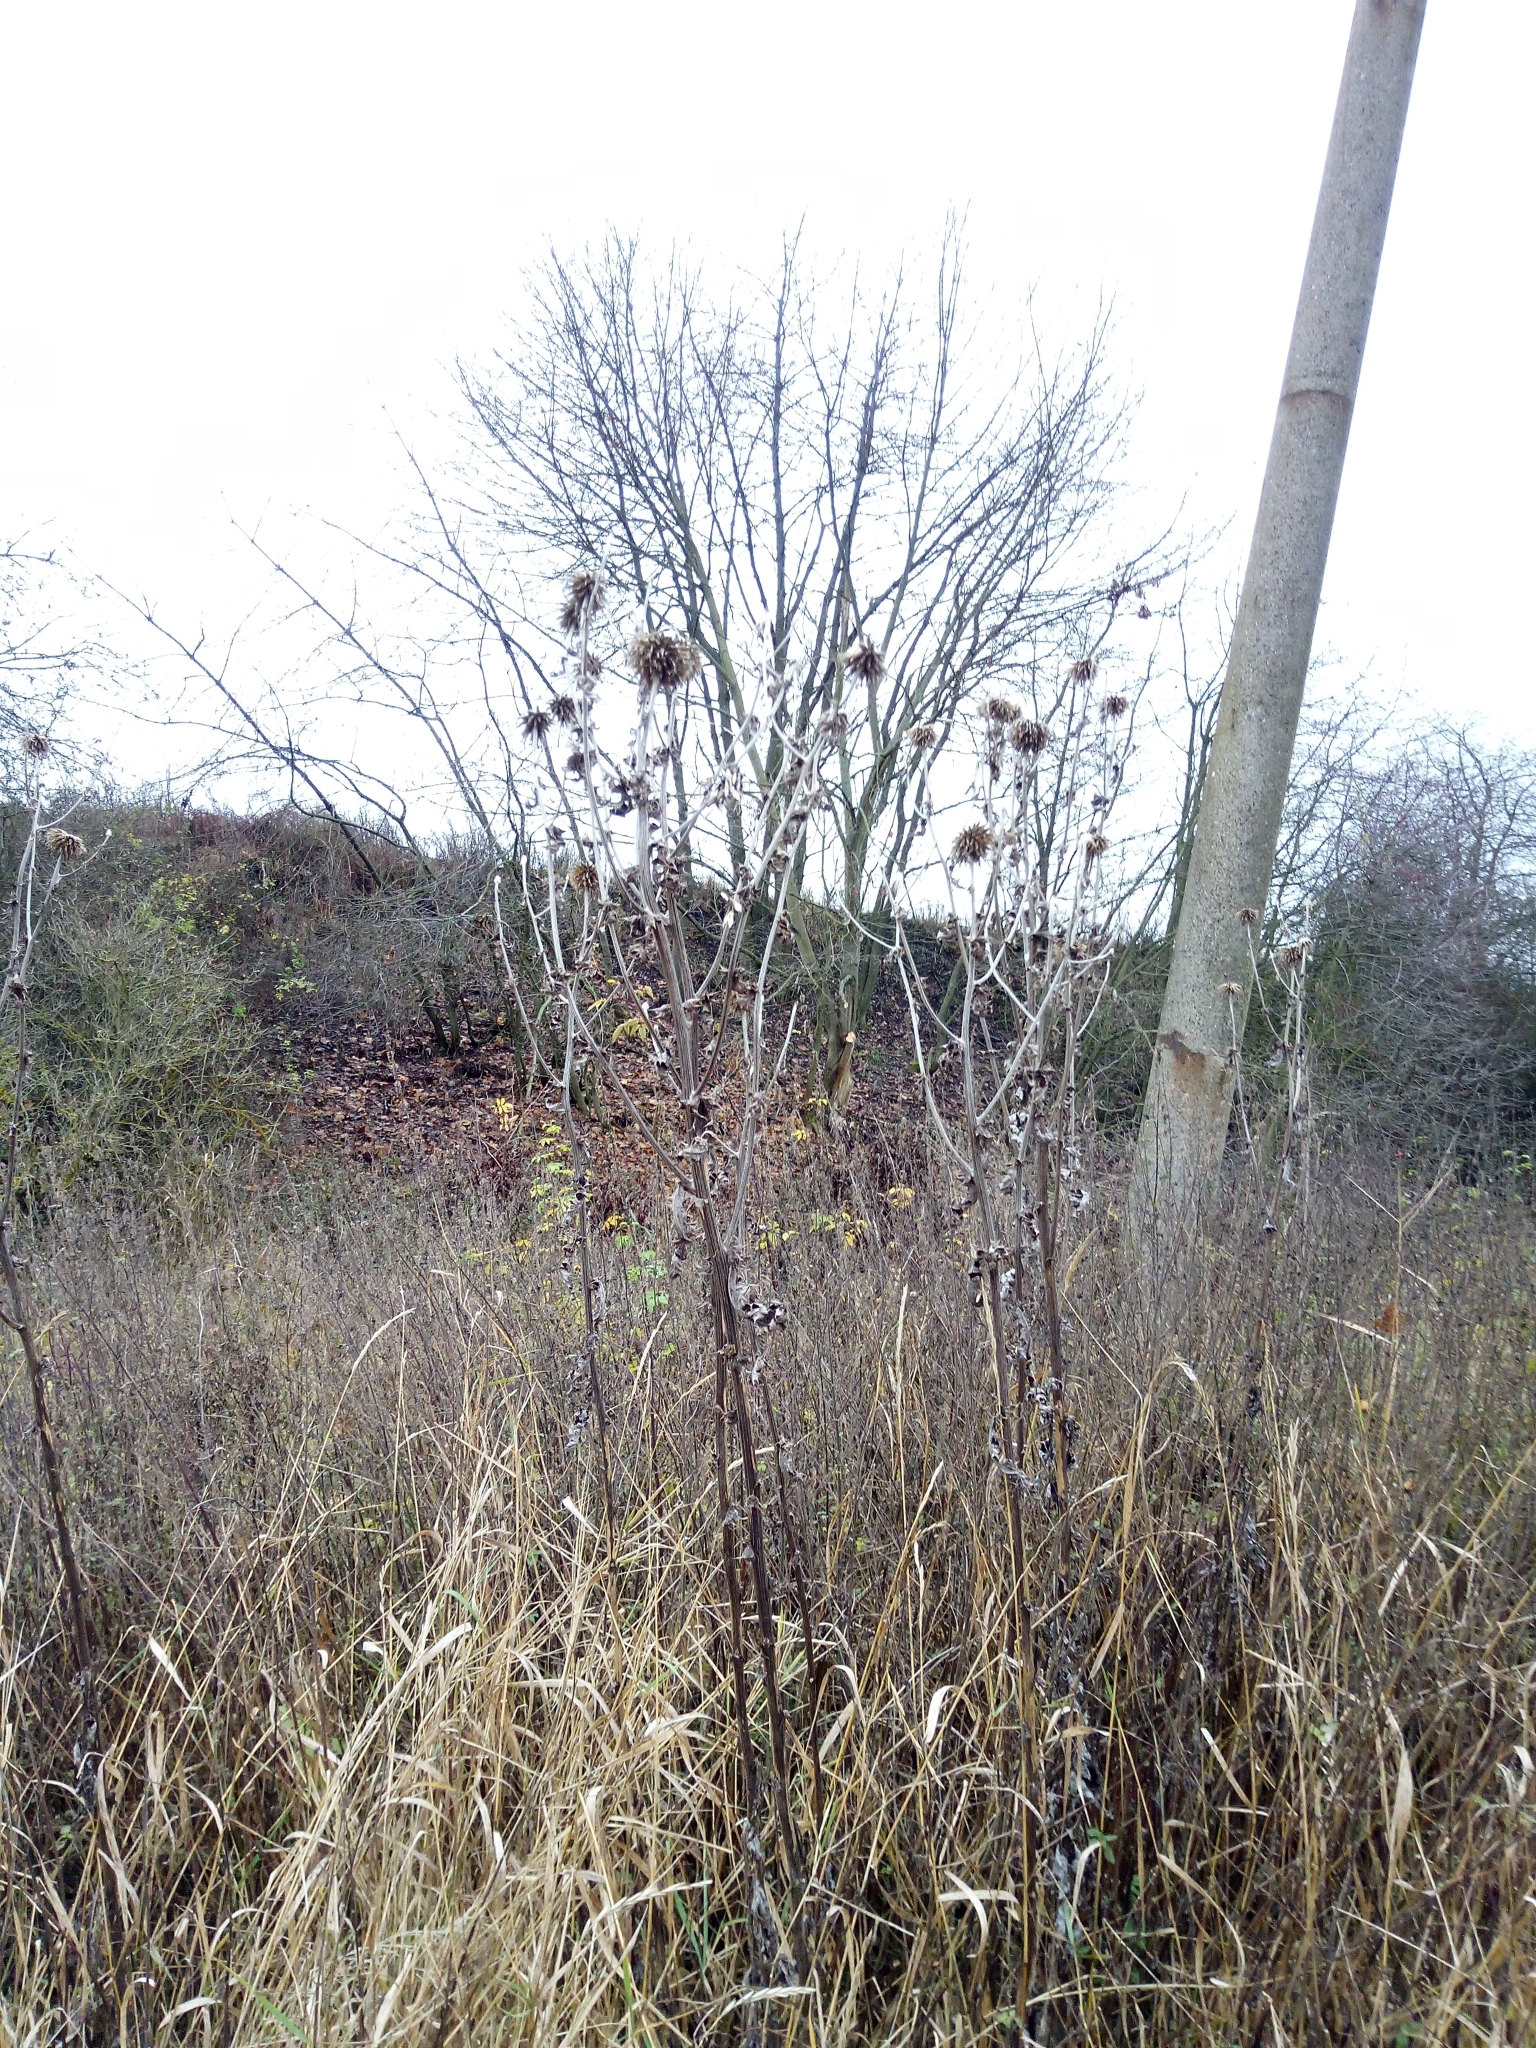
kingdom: Plantae
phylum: Tracheophyta
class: Magnoliopsida
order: Asterales
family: Asteraceae
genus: Echinops
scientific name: Echinops sphaerocephalus
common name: Glandular globe-thistle
